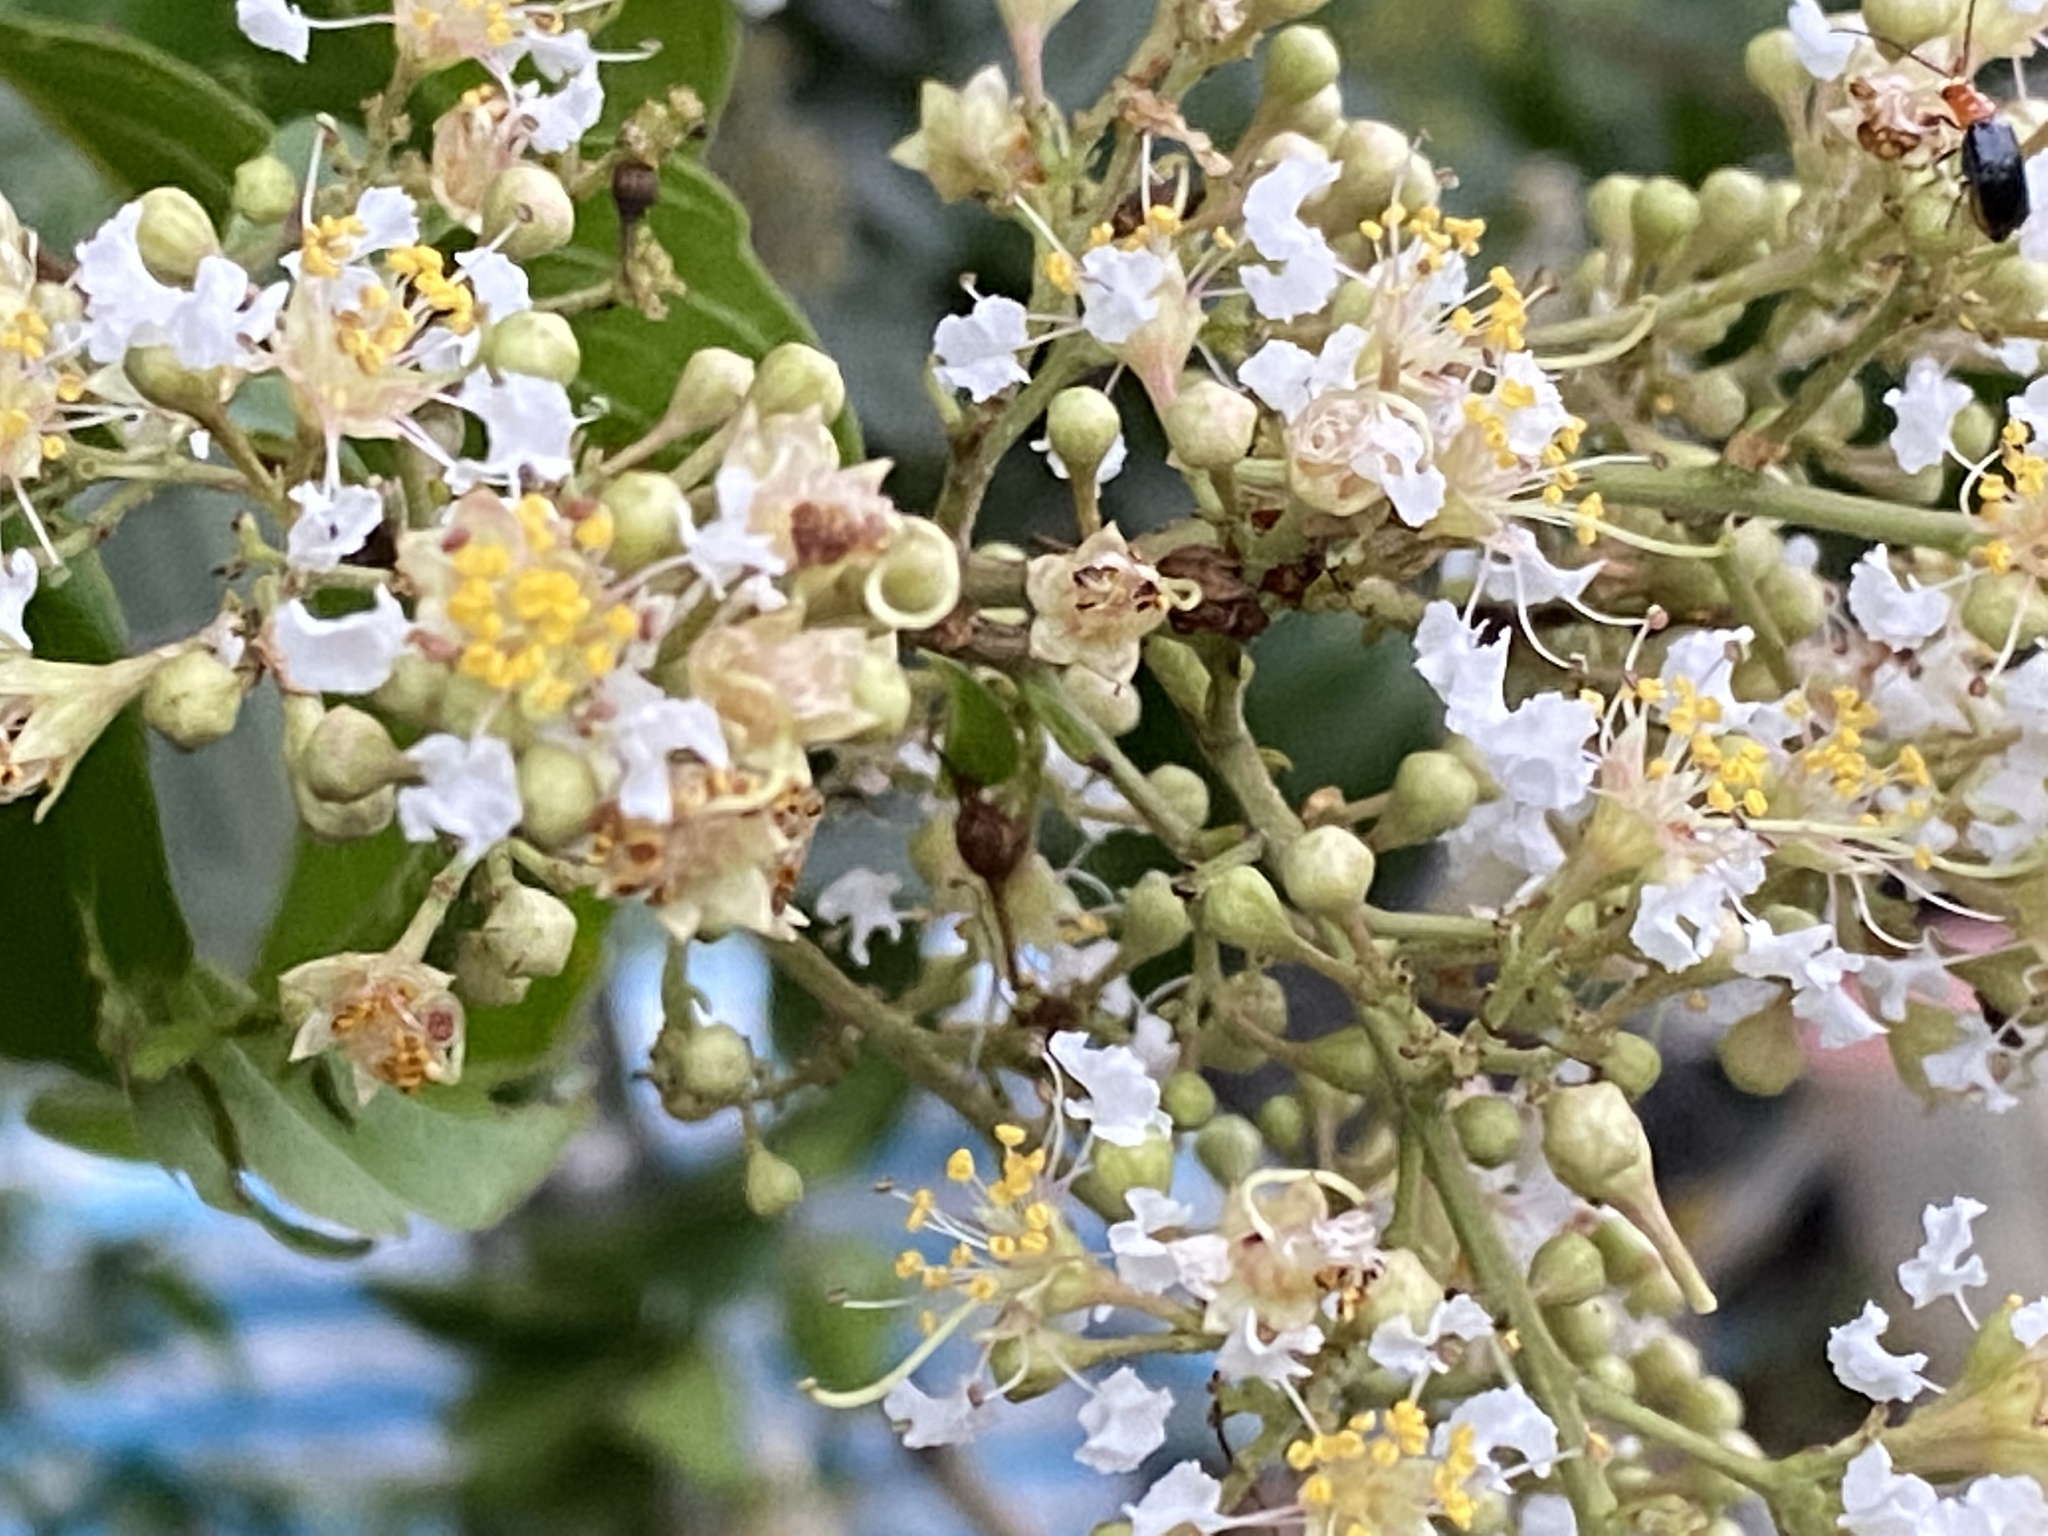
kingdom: Plantae
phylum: Tracheophyta
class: Magnoliopsida
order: Myrtales
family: Lythraceae
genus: Lagerstroemia
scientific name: Lagerstroemia subcostata
